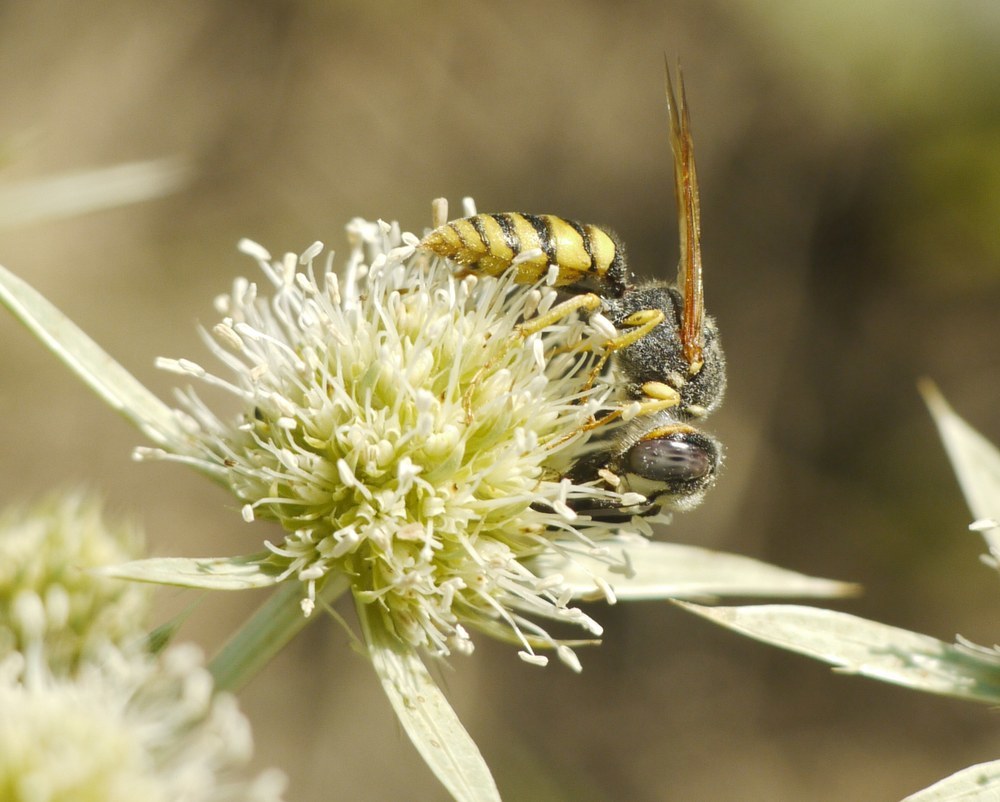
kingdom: Animalia
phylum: Arthropoda
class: Insecta
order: Hymenoptera
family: Crabronidae
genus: Philanthus
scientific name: Philanthus triangulum
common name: Bee wolf
